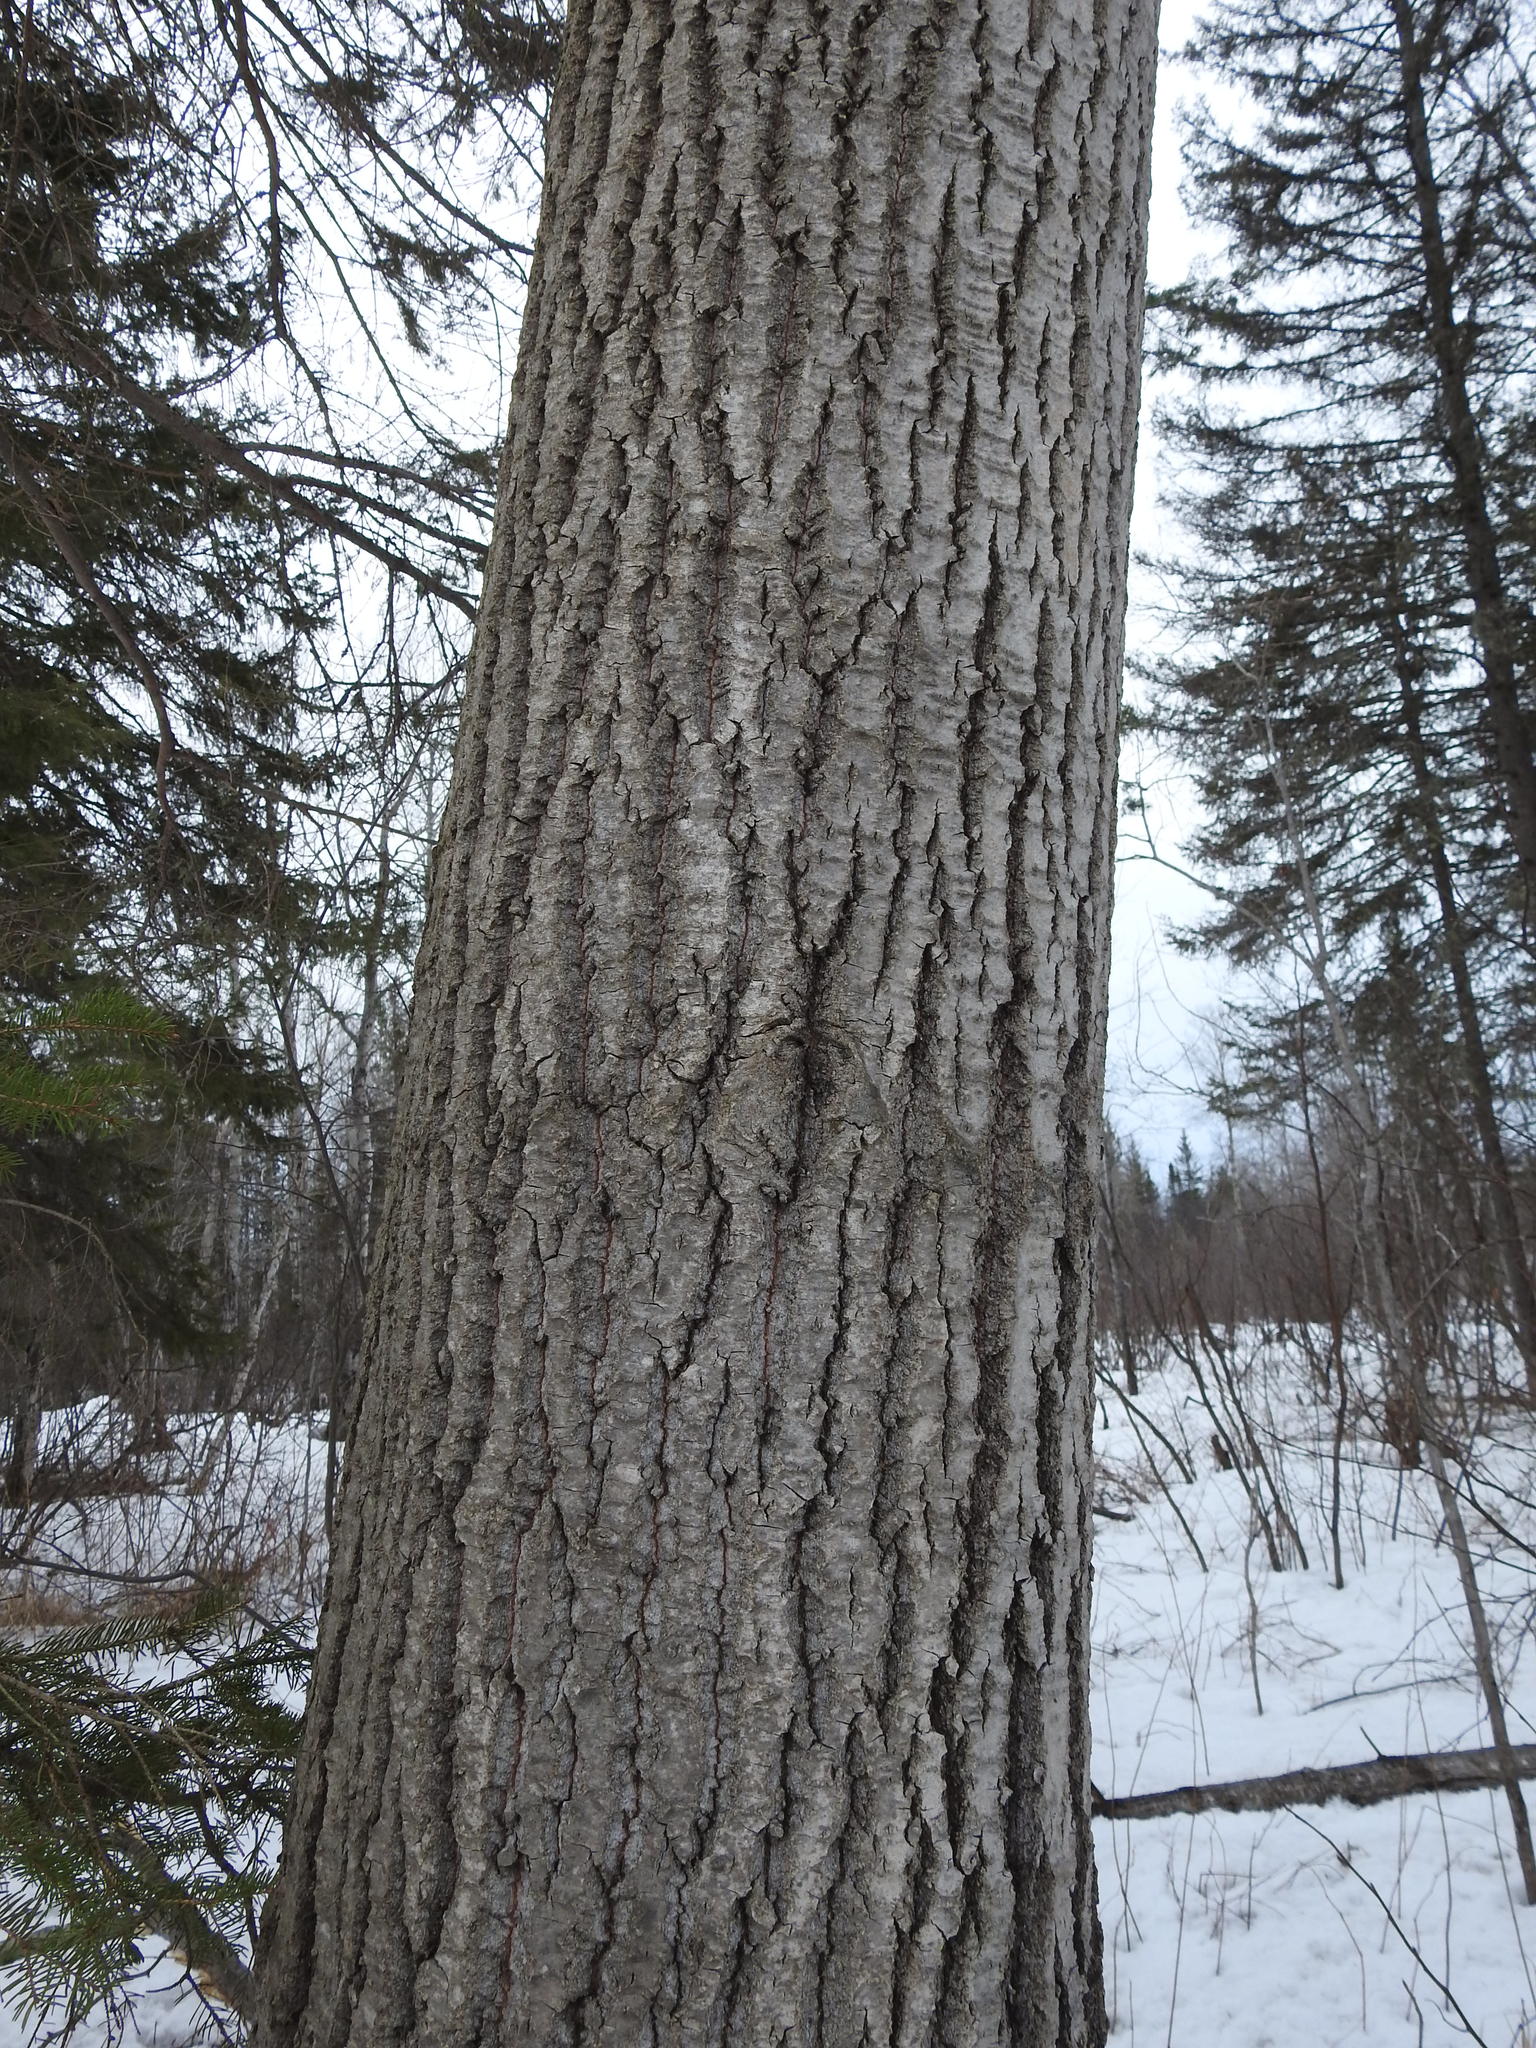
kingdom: Plantae
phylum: Tracheophyta
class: Magnoliopsida
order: Malpighiales
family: Salicaceae
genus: Populus
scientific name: Populus tremuloides
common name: Quaking aspen
